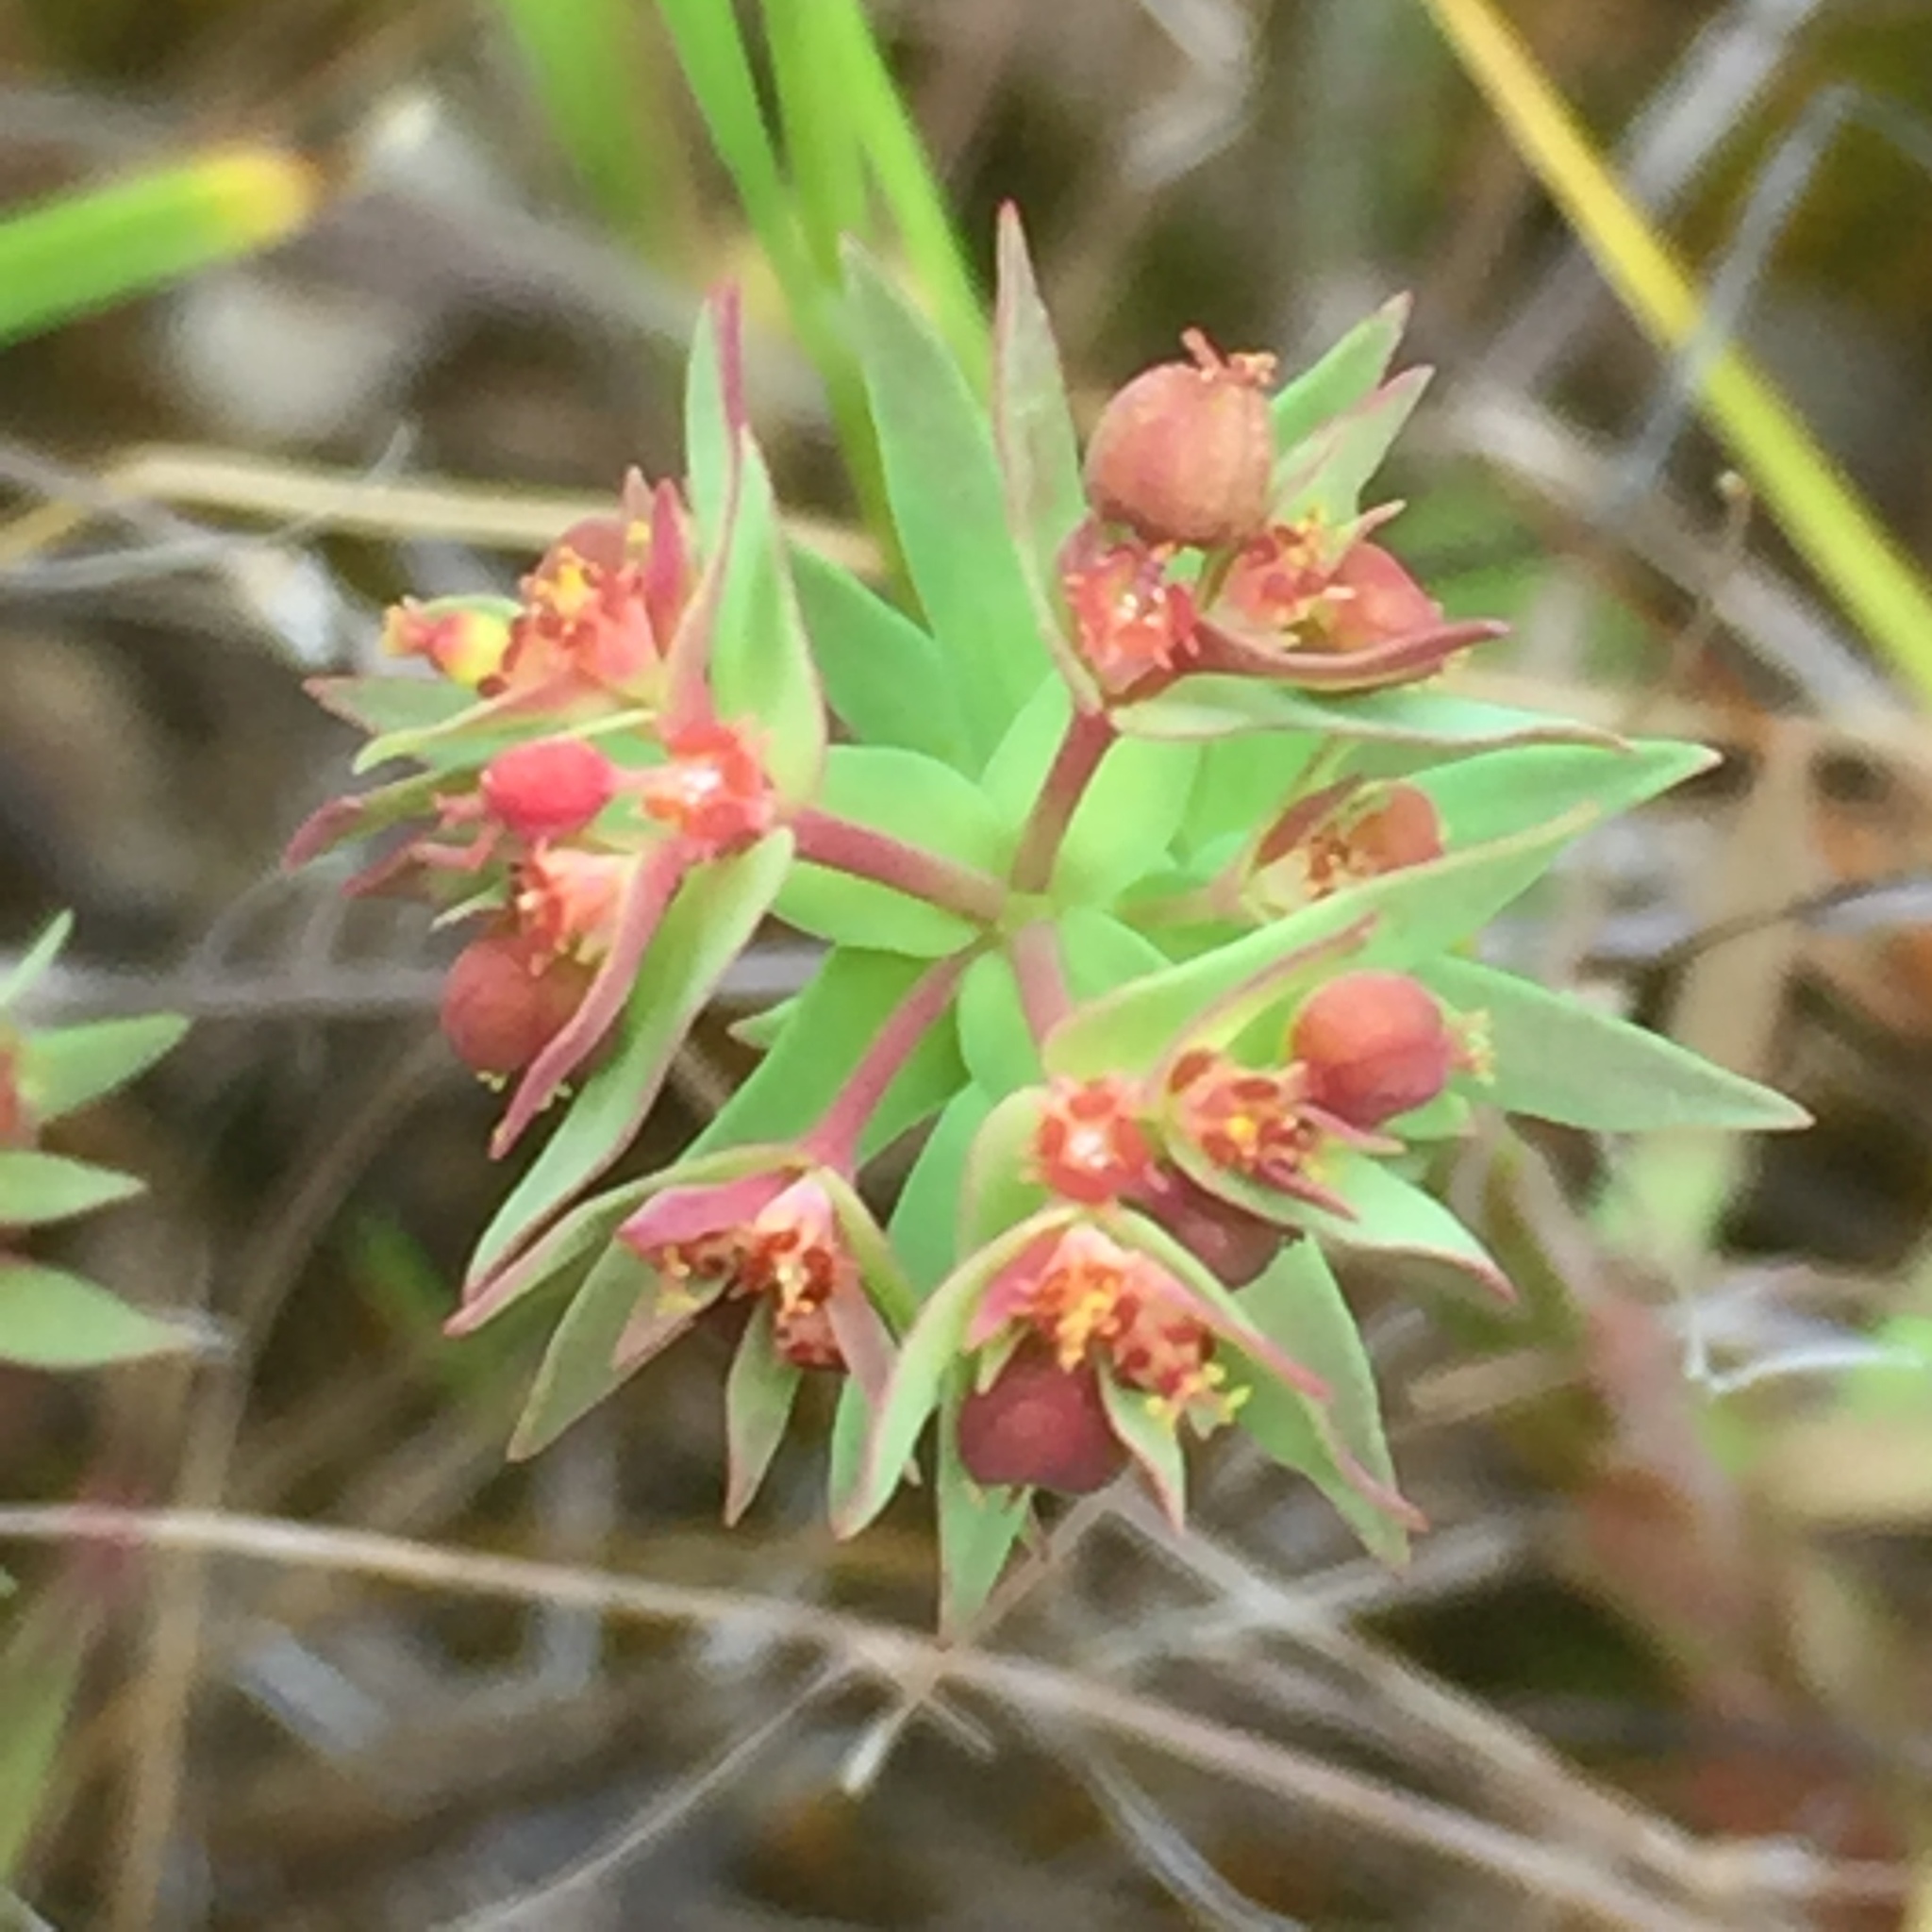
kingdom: Plantae
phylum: Tracheophyta
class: Magnoliopsida
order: Malpighiales
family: Euphorbiaceae
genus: Euphorbia
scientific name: Euphorbia exigua
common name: Dwarf spurge
